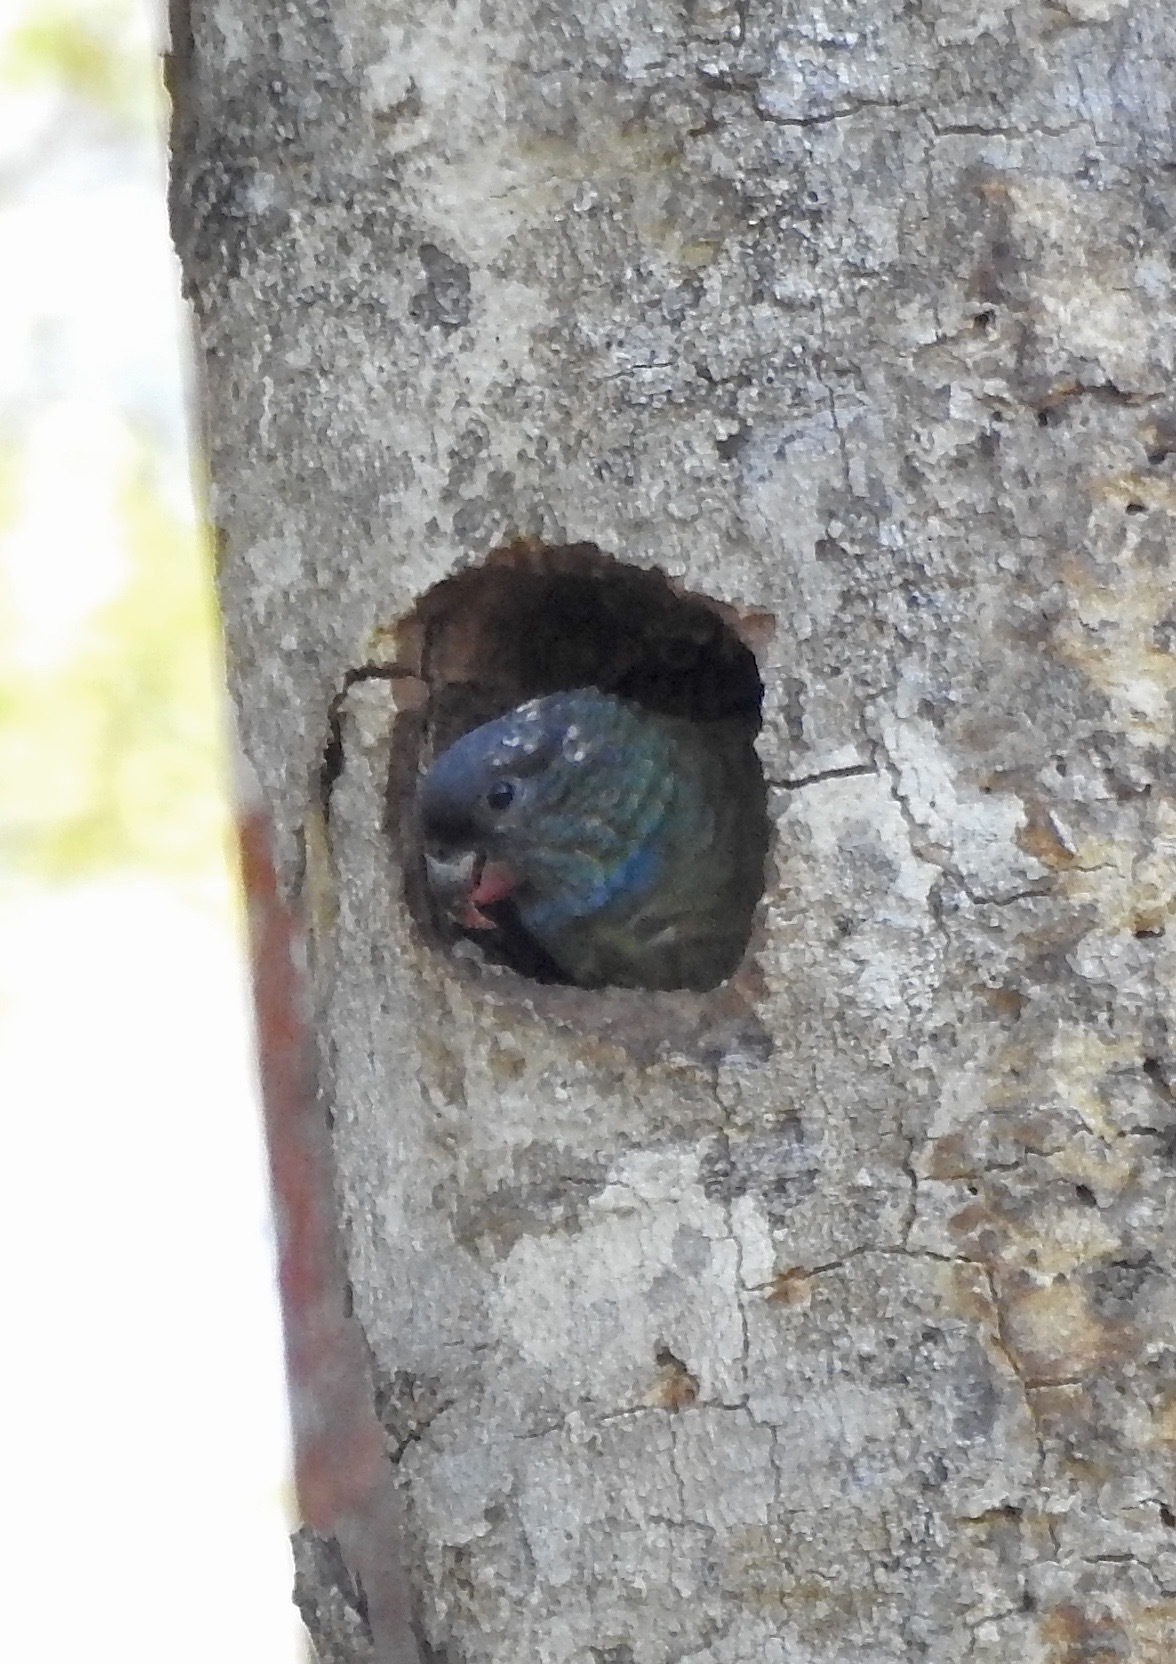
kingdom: Animalia
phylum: Chordata
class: Aves
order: Psittaciformes
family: Psittacidae
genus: Pionus
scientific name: Pionus sordidus
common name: Red-billed parrot
